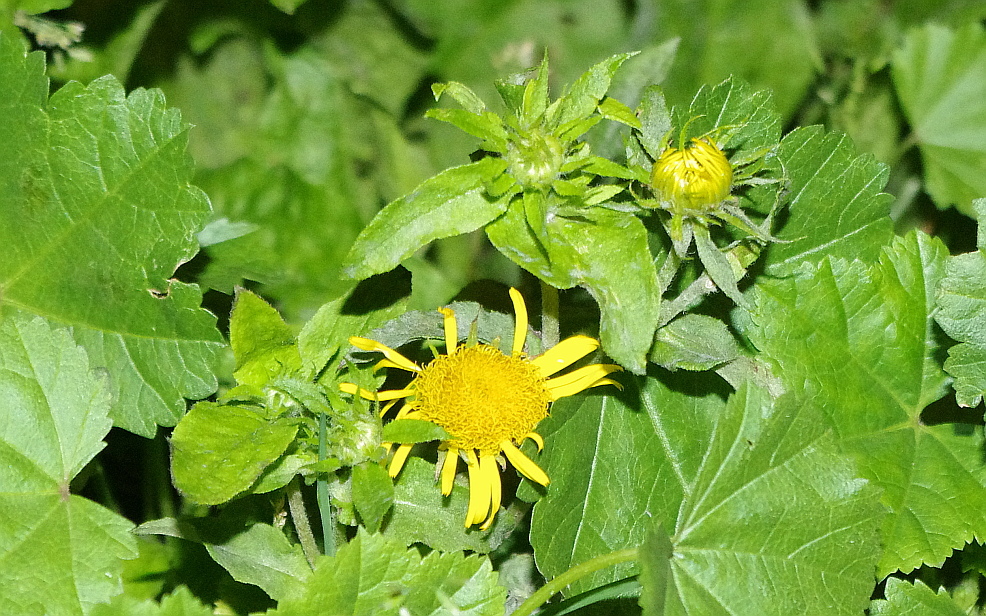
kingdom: Plantae
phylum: Tracheophyta
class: Magnoliopsida
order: Asterales
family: Asteraceae
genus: Pentanema
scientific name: Pentanema britannicum
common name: British elecampane
